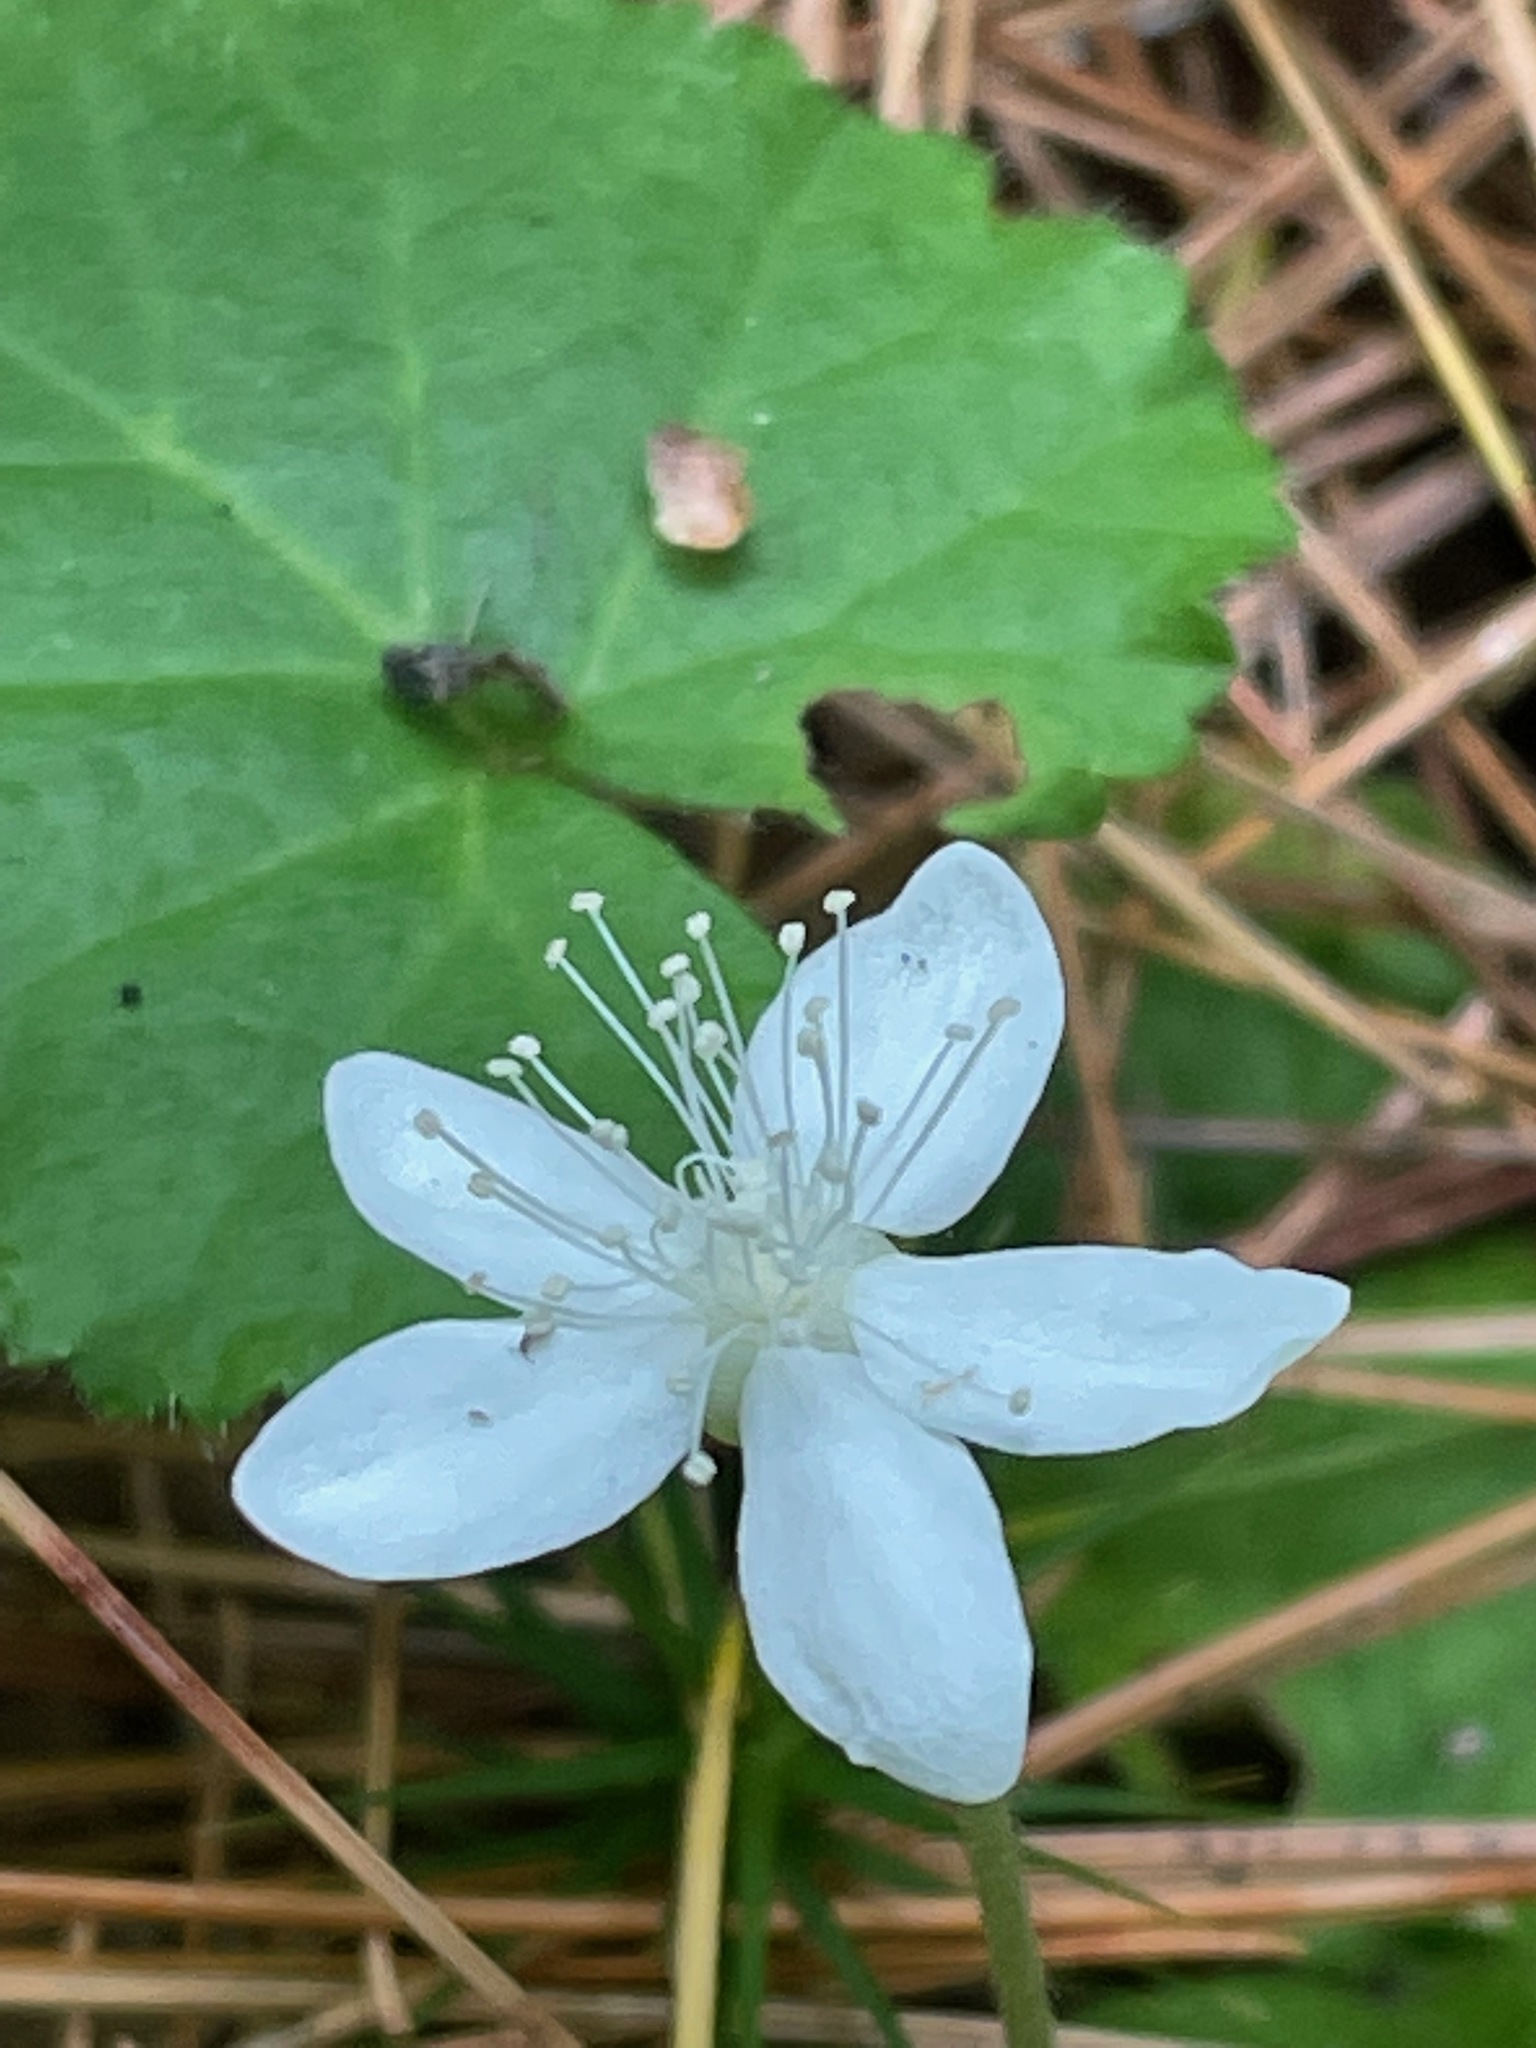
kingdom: Plantae
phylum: Tracheophyta
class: Magnoliopsida
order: Rosales
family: Rosaceae
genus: Dalibarda
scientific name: Dalibarda repens
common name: Dewdrop
